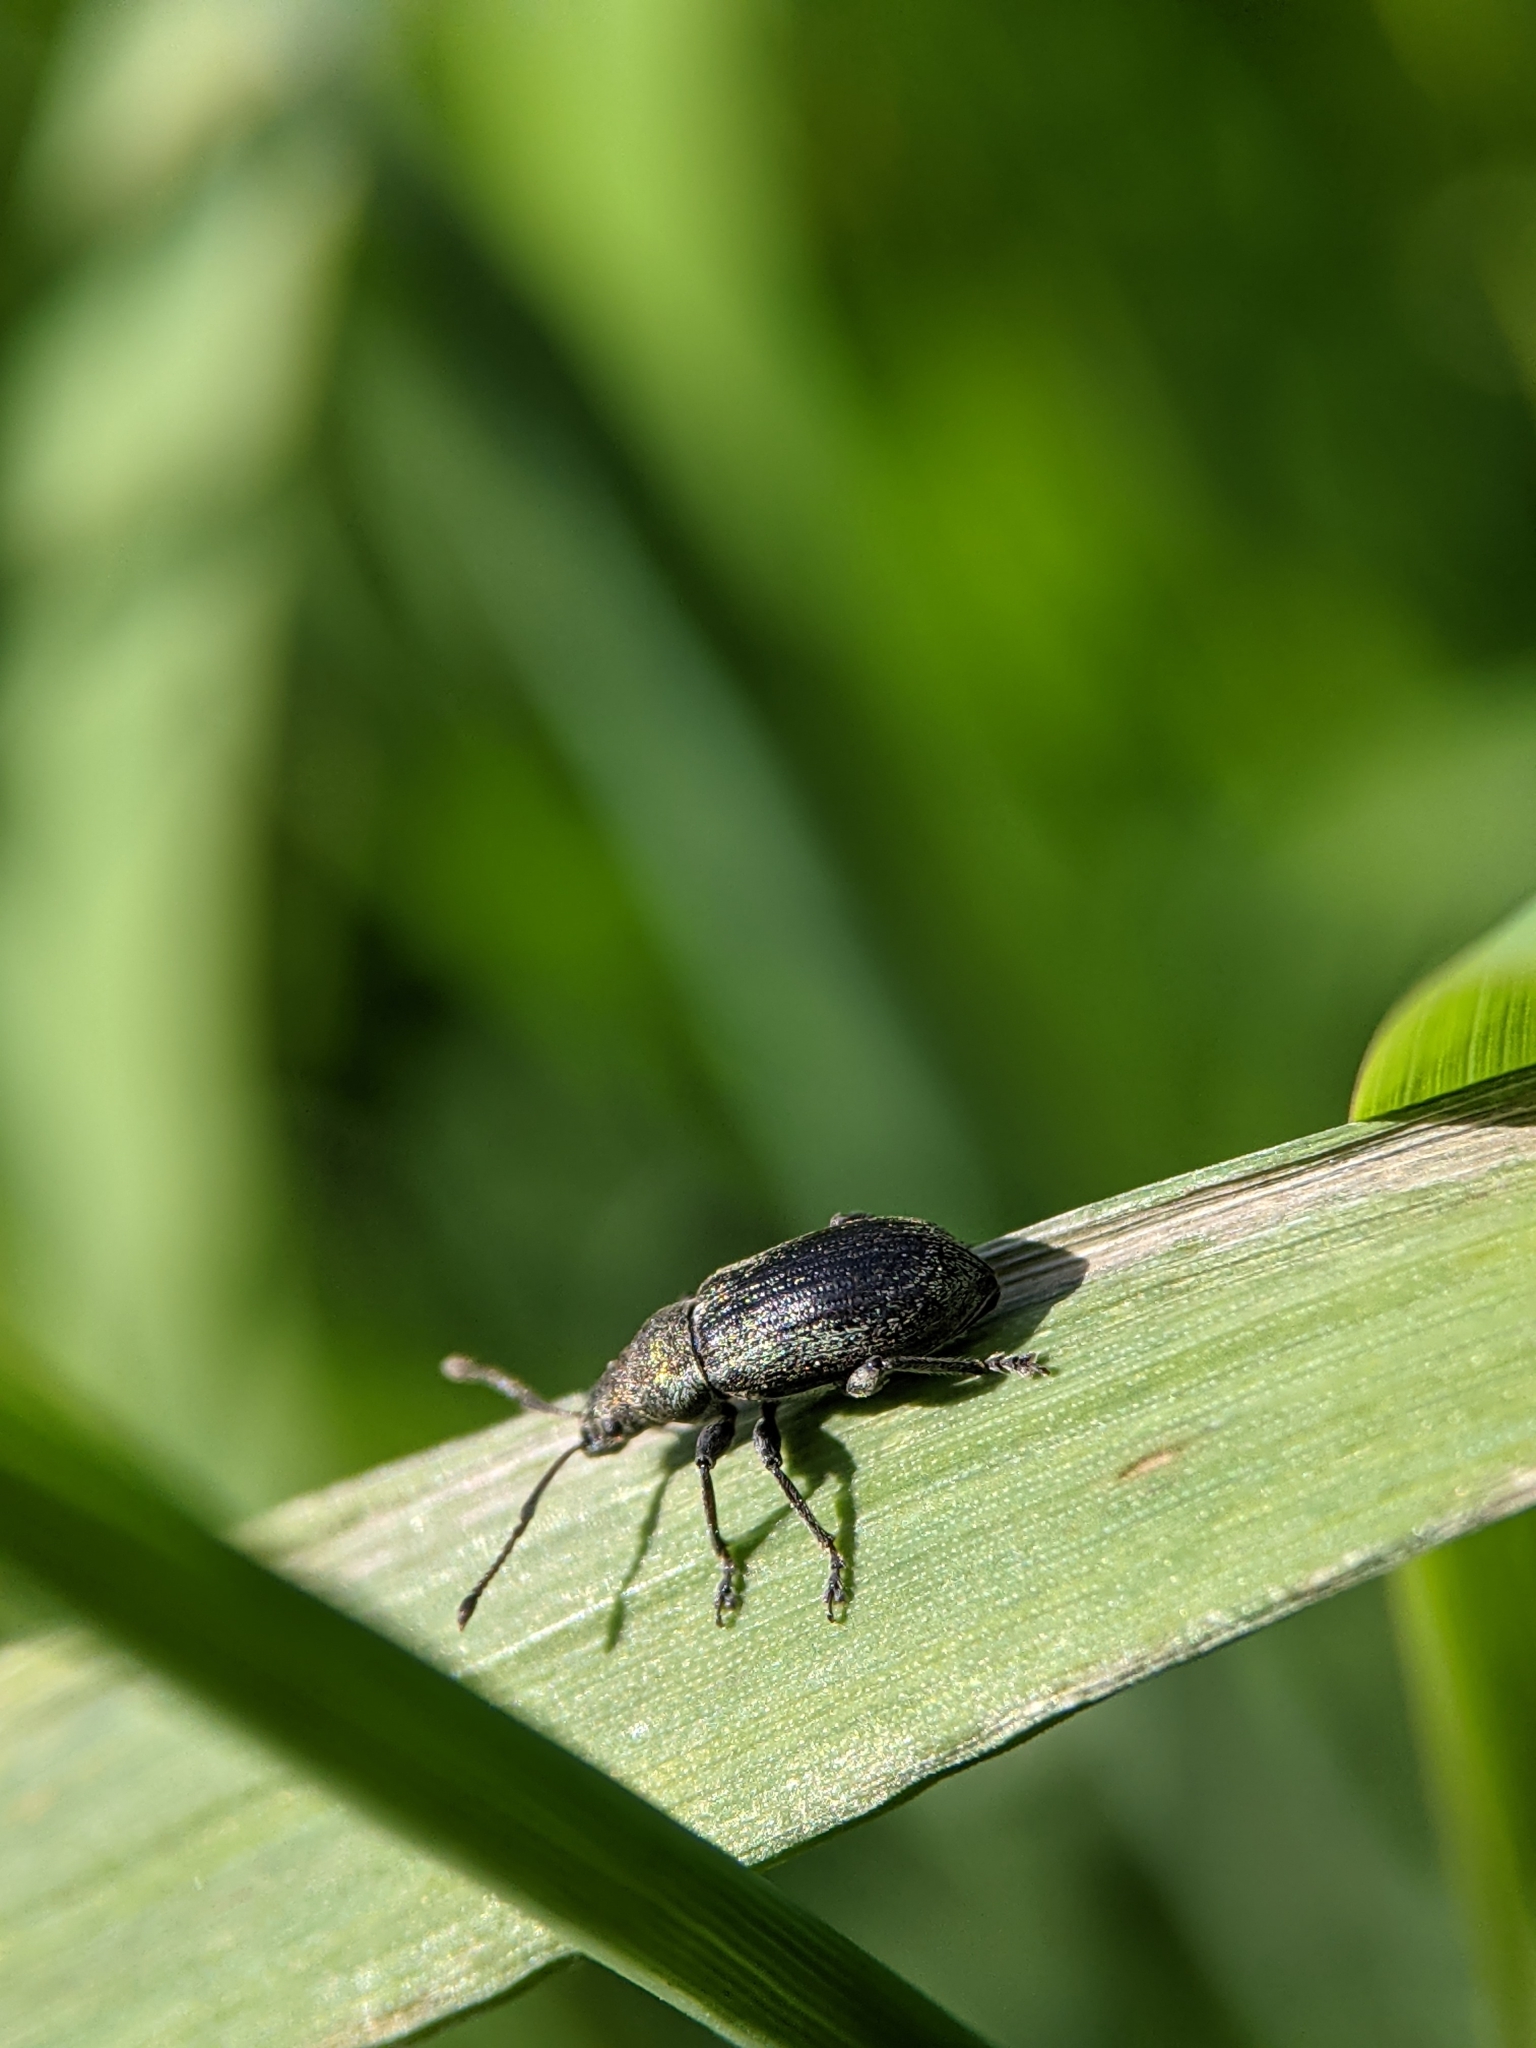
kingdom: Animalia
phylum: Arthropoda
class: Insecta
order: Coleoptera
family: Curculionidae
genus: Phyllobius
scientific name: Phyllobius pyri
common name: Common leaf weevil
